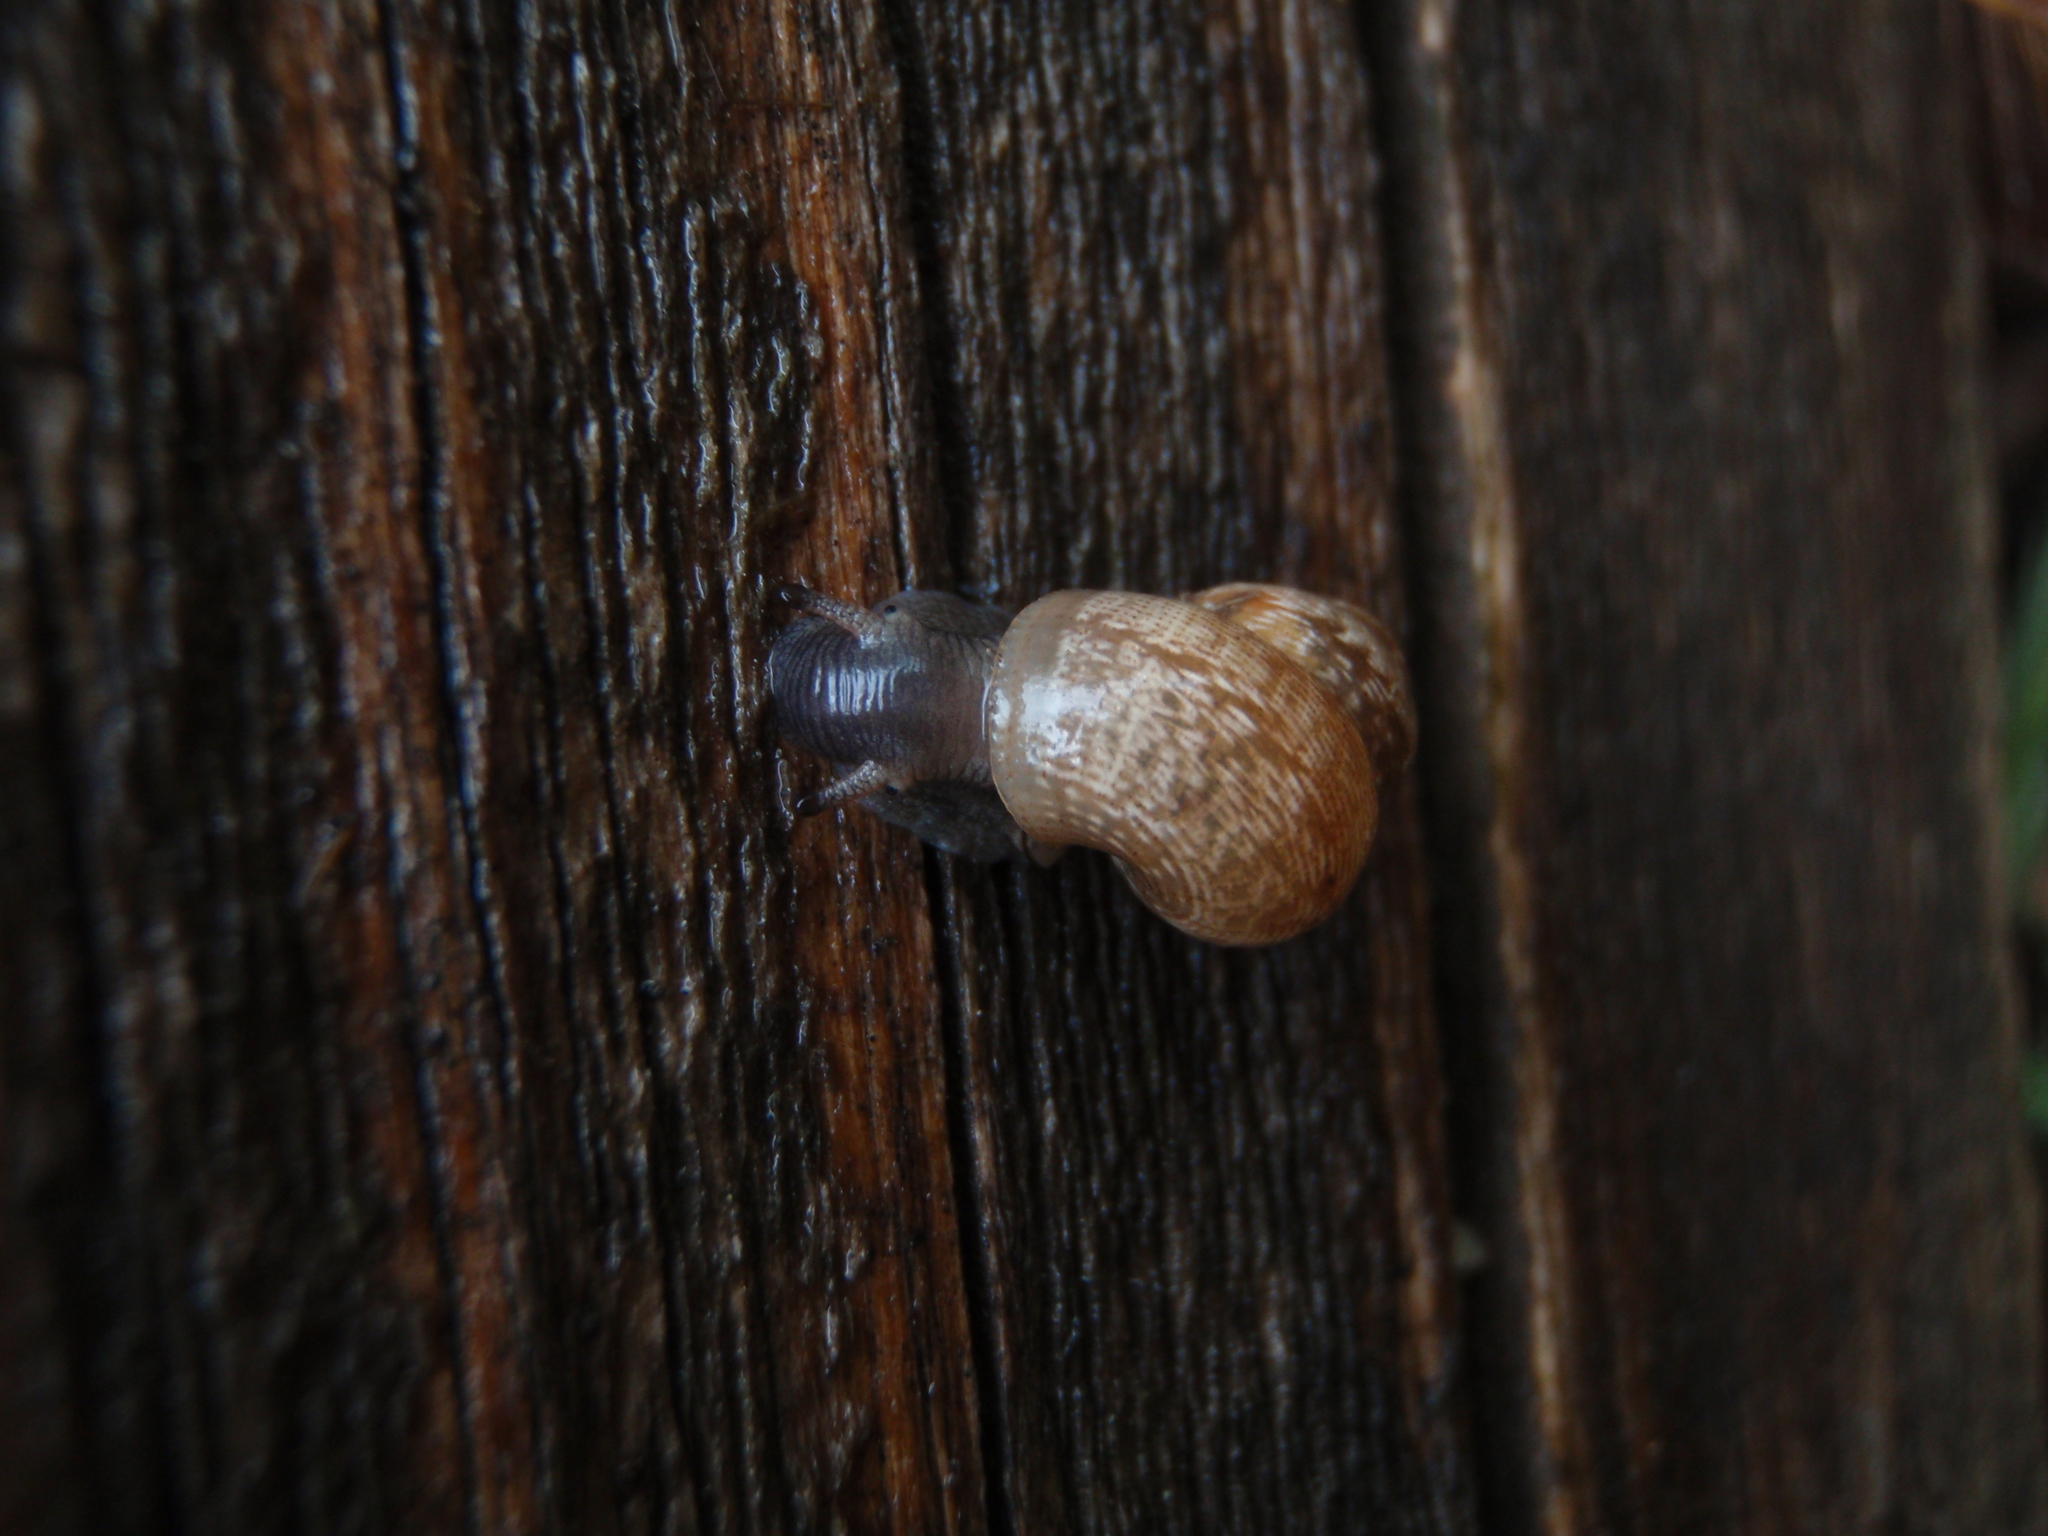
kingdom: Animalia
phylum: Mollusca
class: Gastropoda
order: Littorinimorpha
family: Pomatiidae
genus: Pomatias
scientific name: Pomatias elegans
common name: Red-mouthed snail
